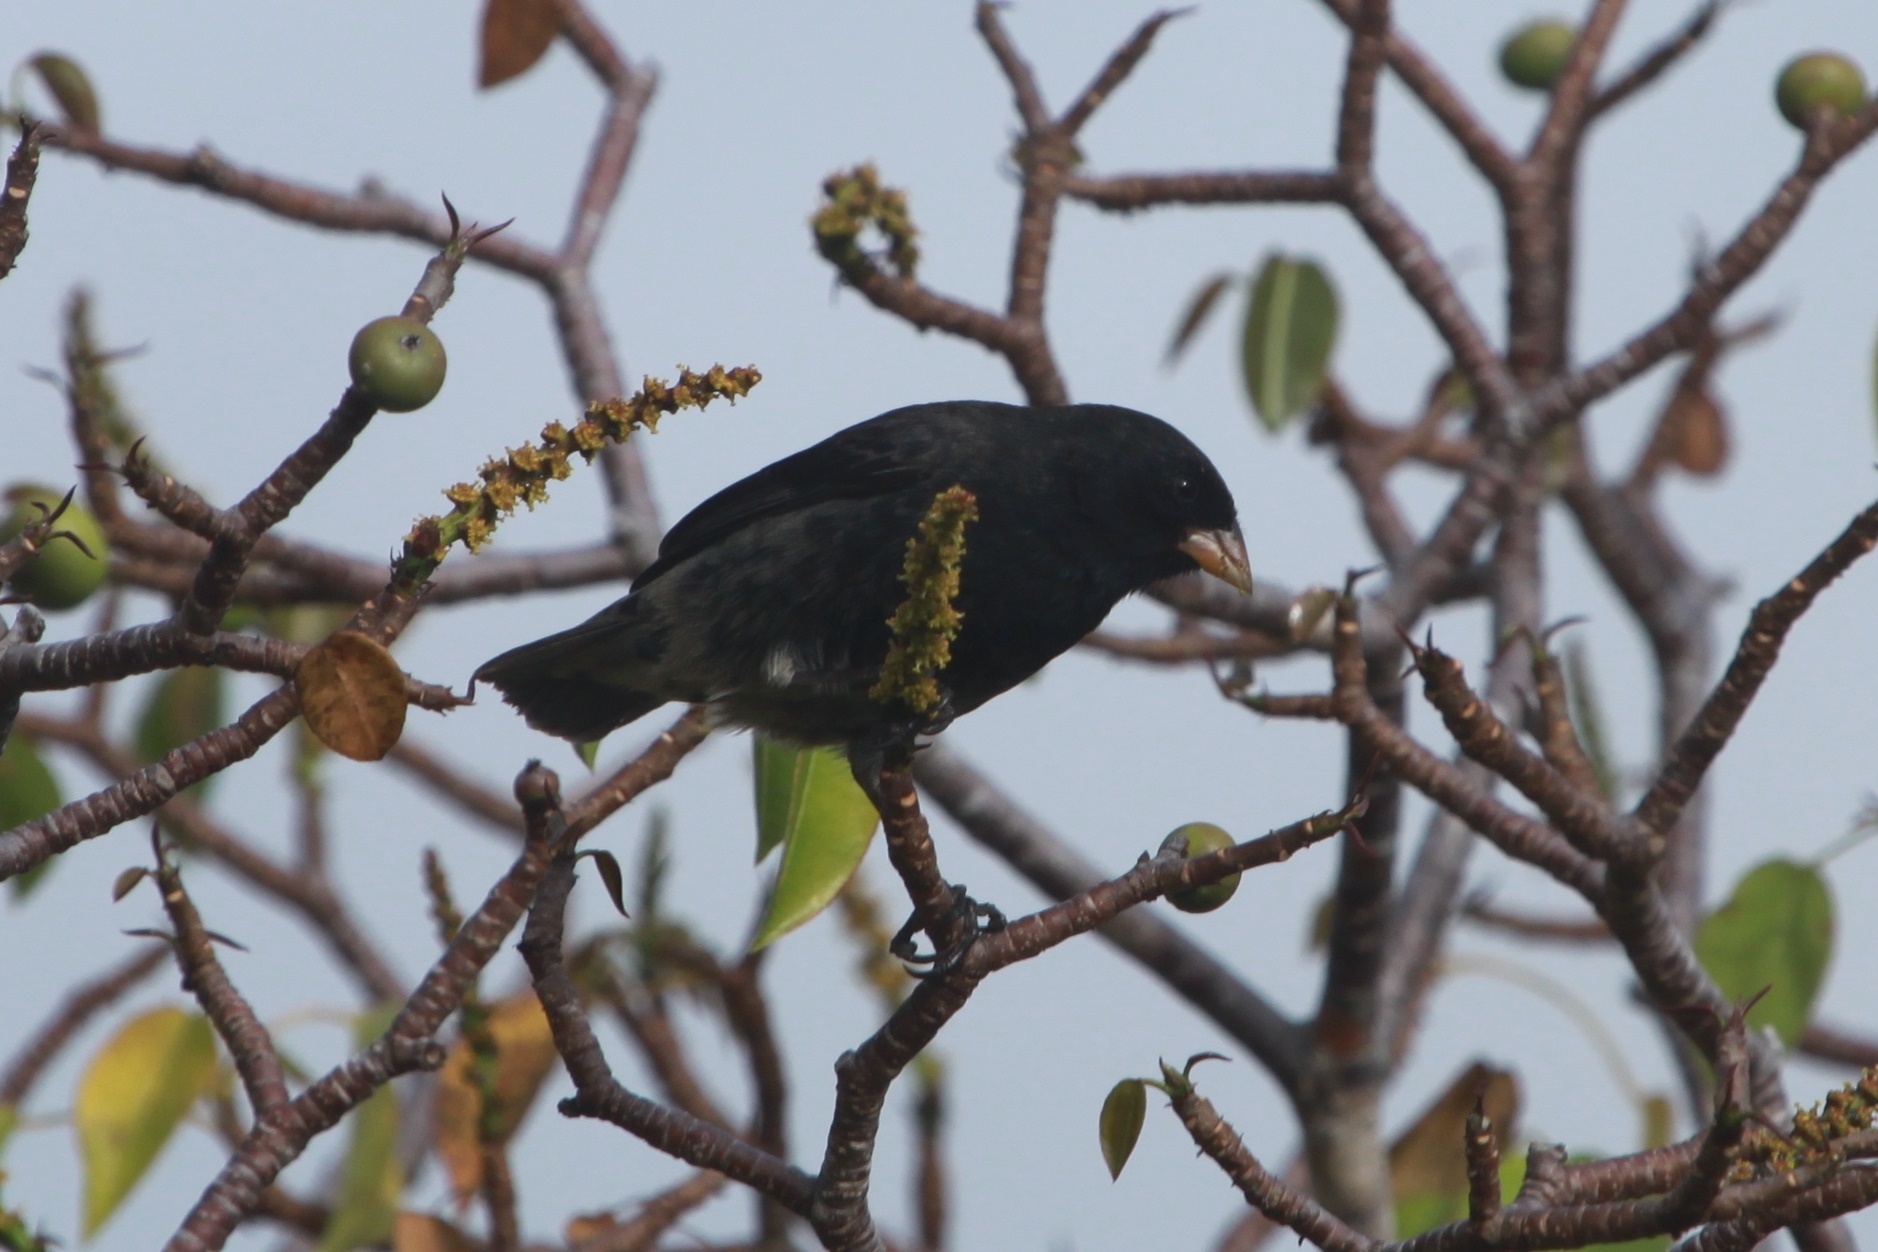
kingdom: Animalia
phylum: Chordata
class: Aves
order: Passeriformes
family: Thraupidae
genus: Geospiza
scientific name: Geospiza fortis
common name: Medium ground finch
